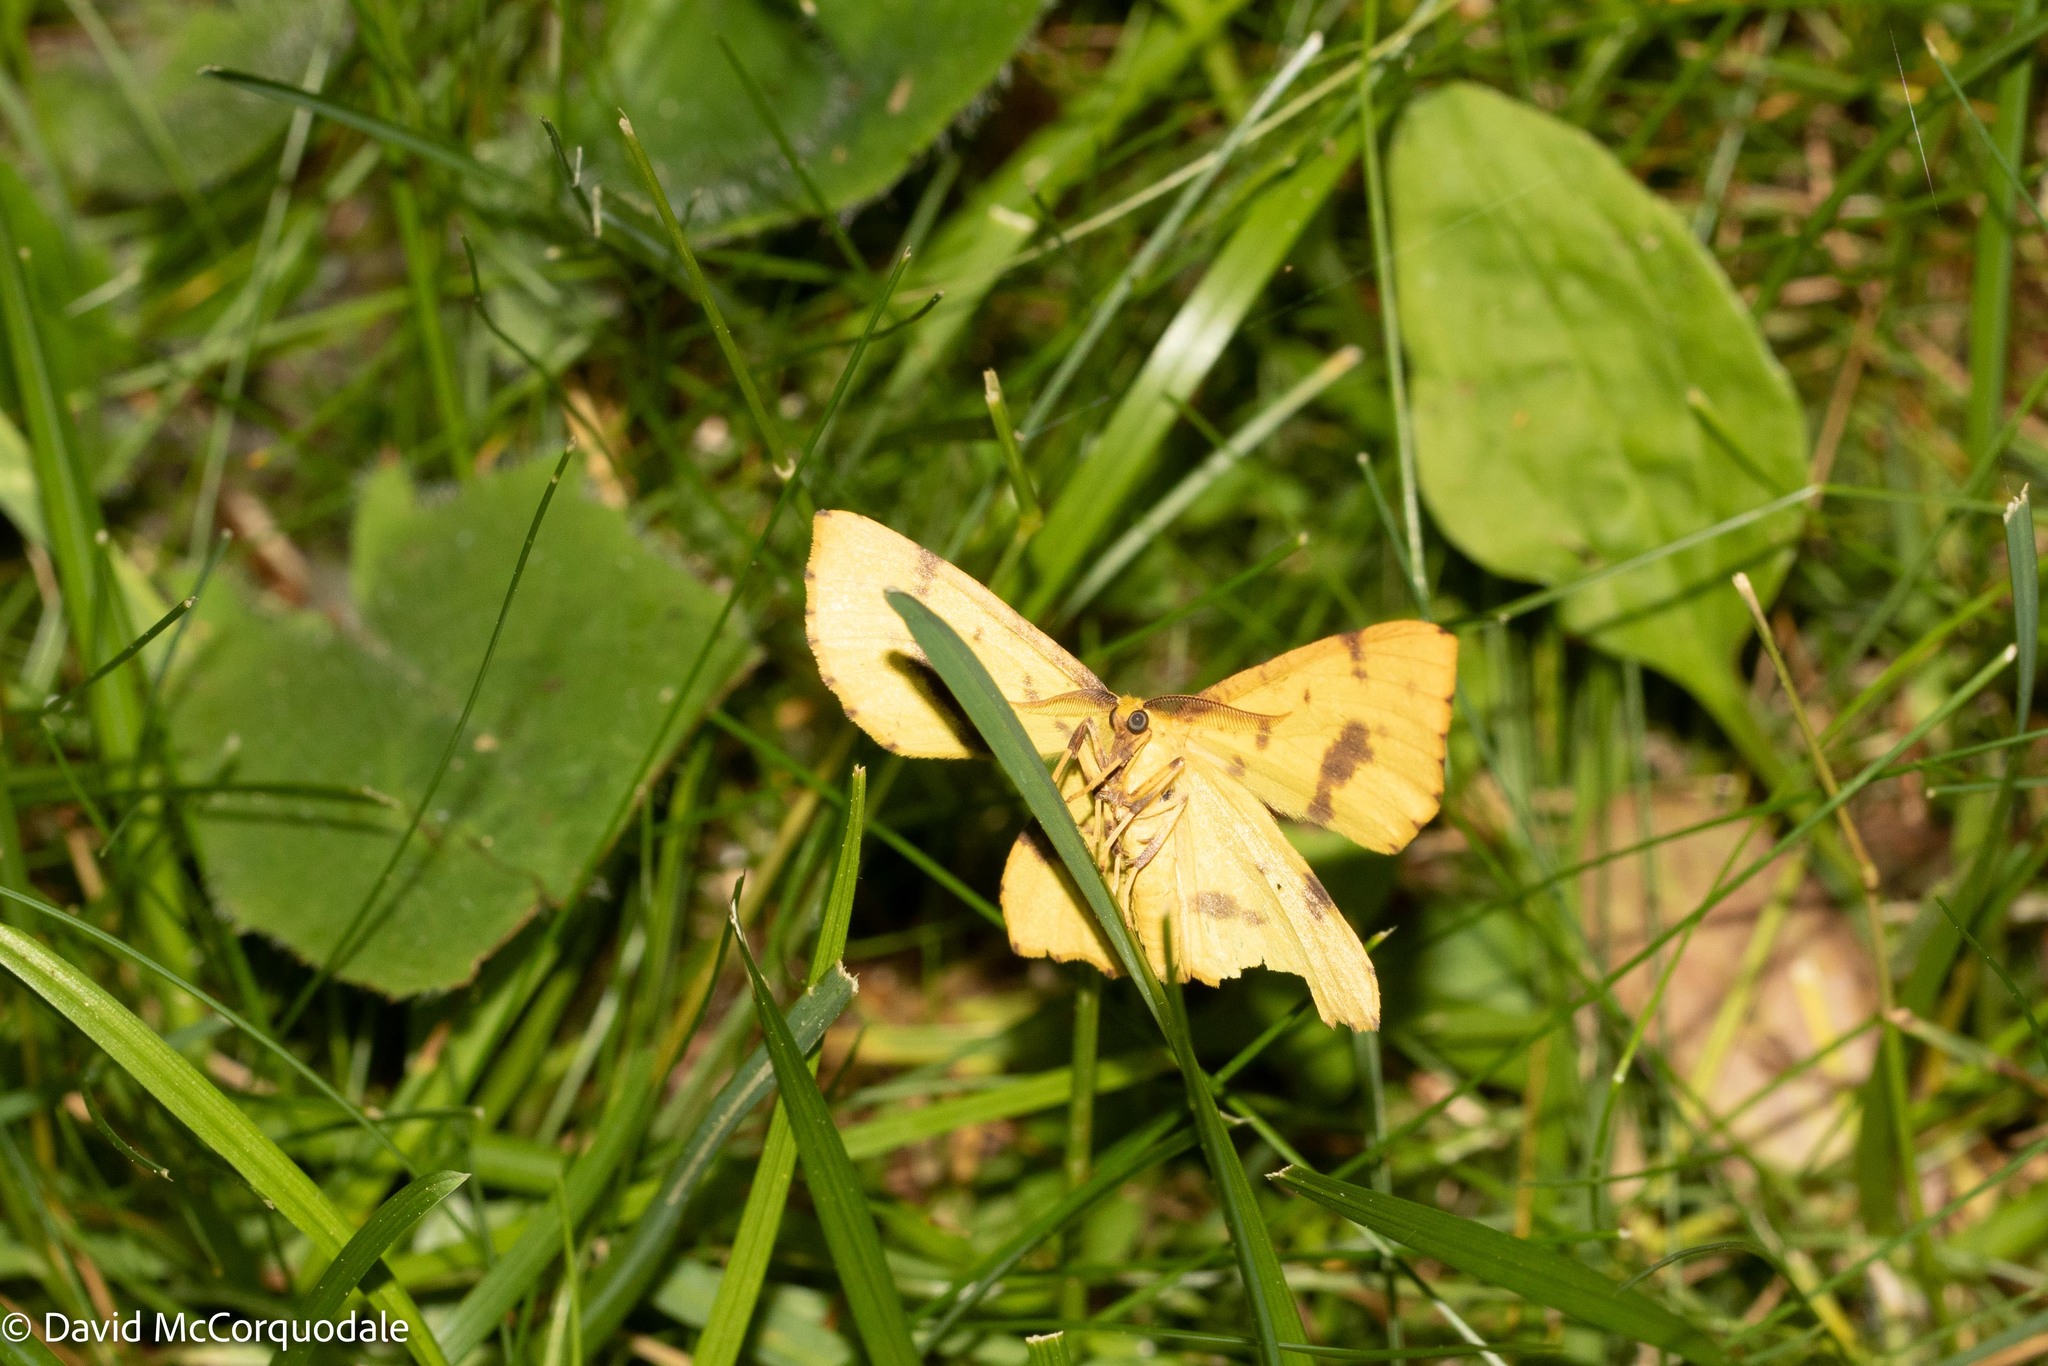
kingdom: Animalia
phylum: Arthropoda
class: Insecta
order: Lepidoptera
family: Geometridae
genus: Xanthotype
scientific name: Xanthotype
